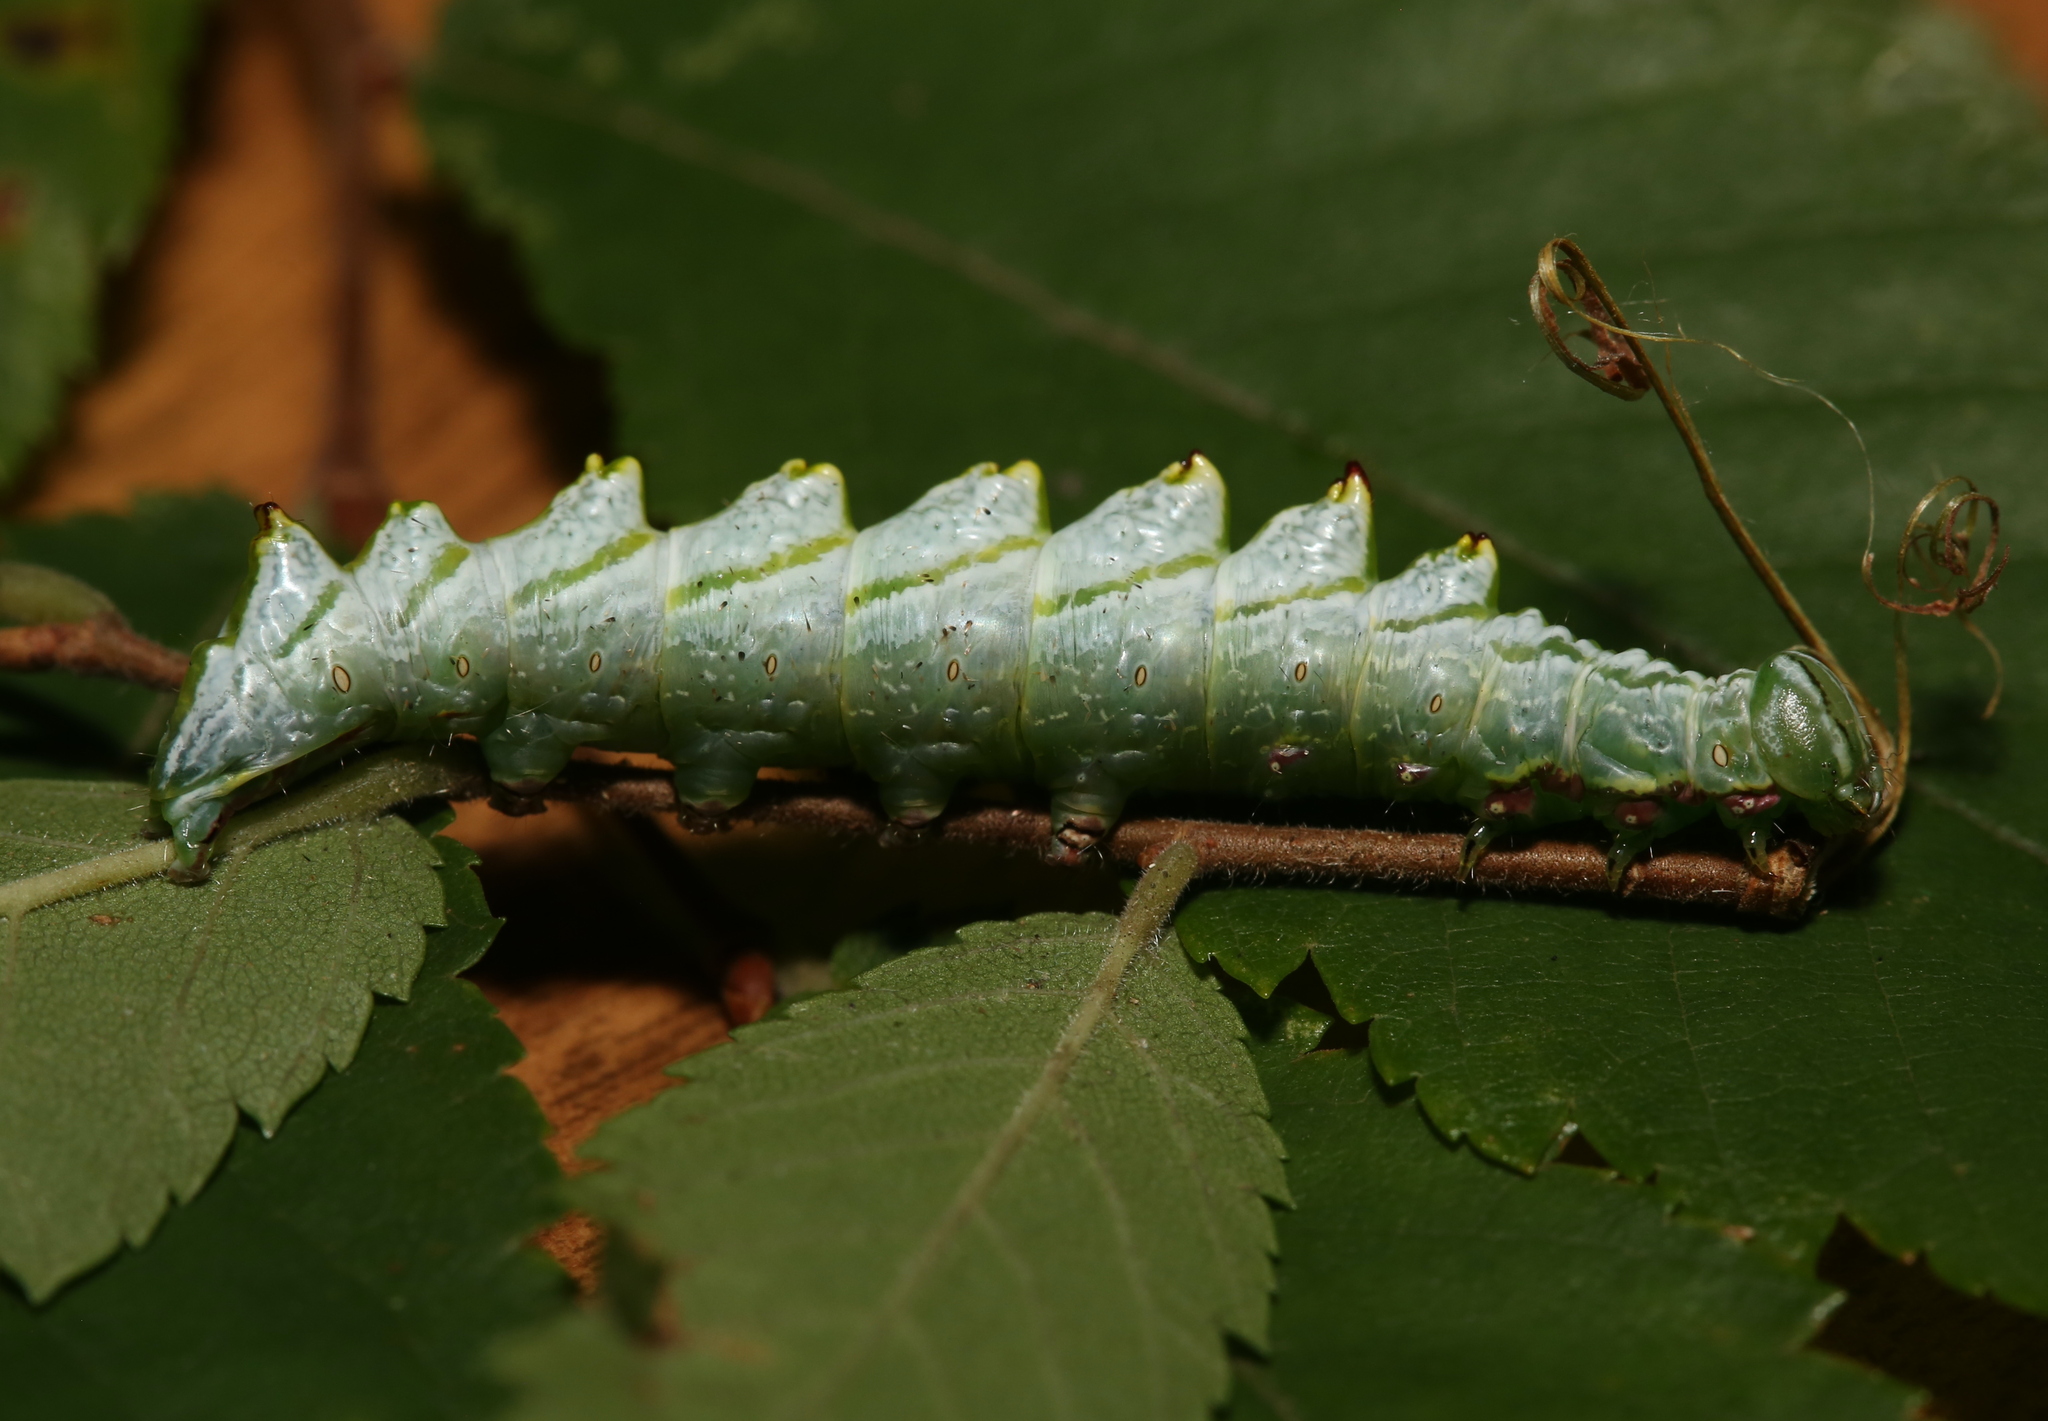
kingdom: Animalia
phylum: Arthropoda
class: Insecta
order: Lepidoptera
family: Notodontidae
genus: Nerice
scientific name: Nerice bidentata
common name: Double-toothed prominent
